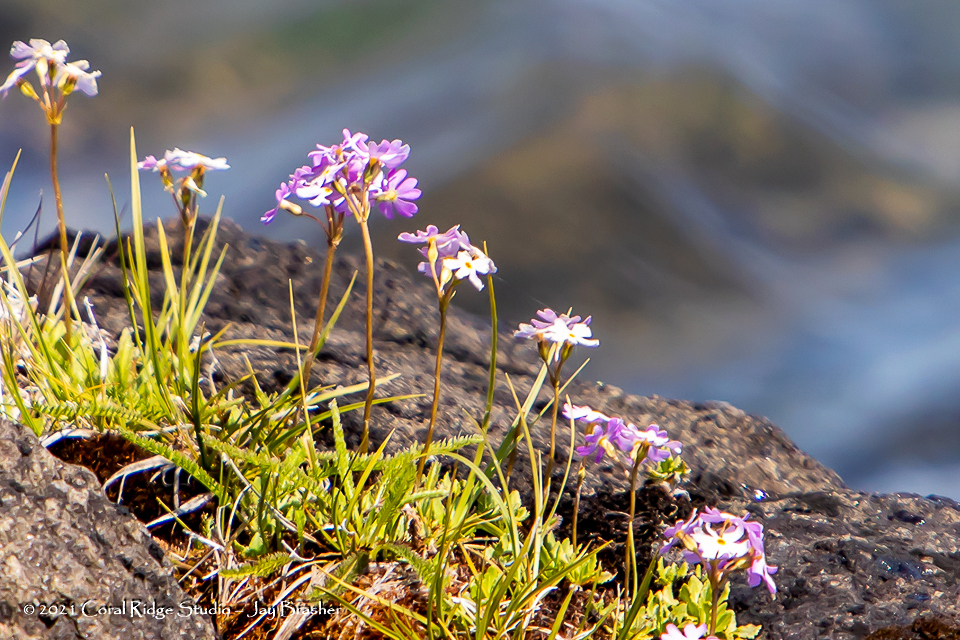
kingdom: Plantae
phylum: Tracheophyta
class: Magnoliopsida
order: Ericales
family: Primulaceae
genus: Primula
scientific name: Primula mistassinica
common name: Bird's-eye primrose
